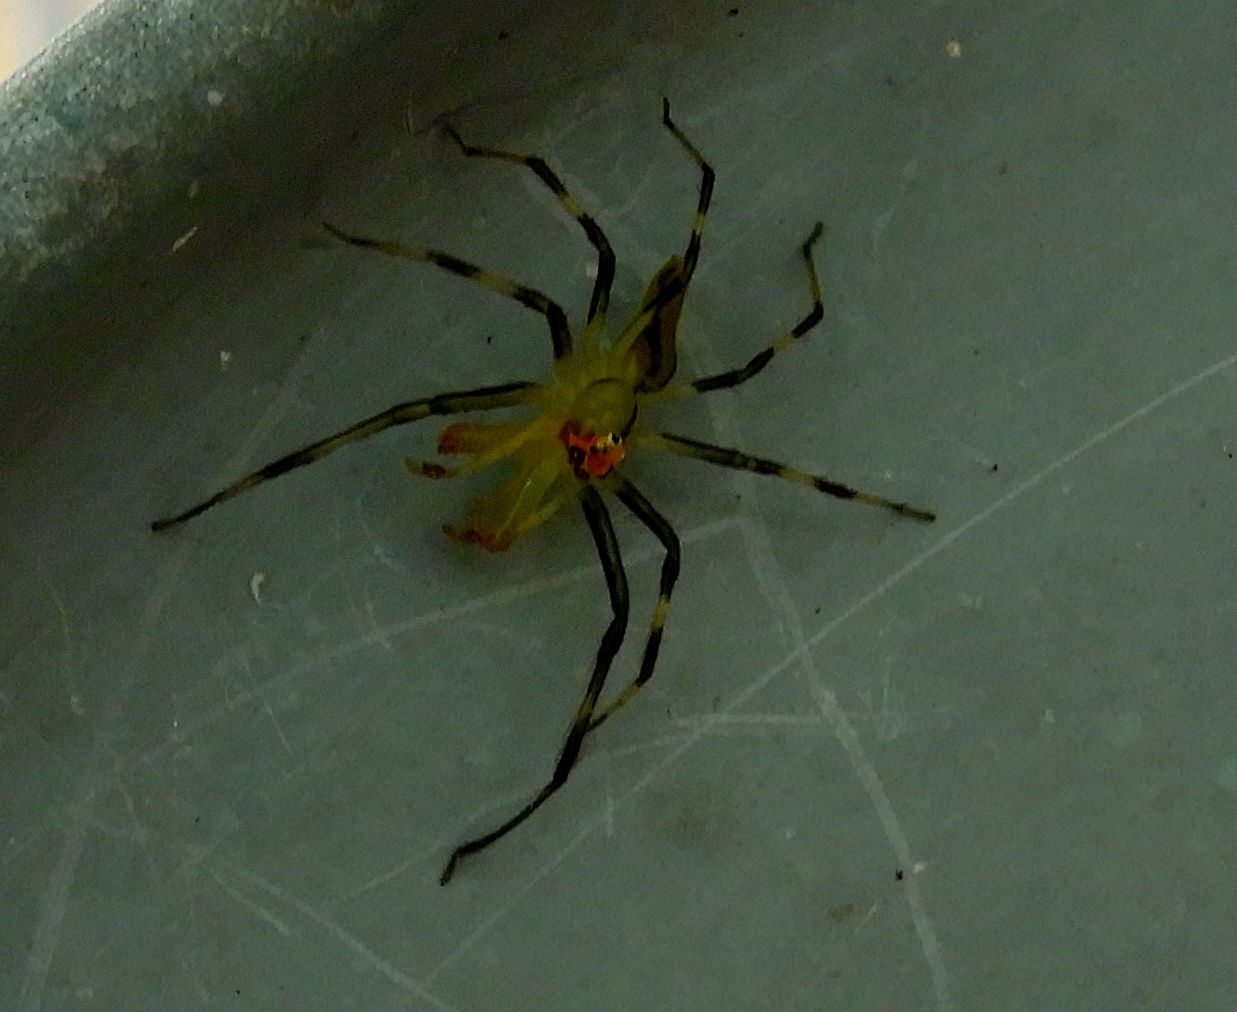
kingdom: Animalia
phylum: Arthropoda
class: Arachnida
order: Araneae
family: Salticidae
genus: Lyssomanes
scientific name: Lyssomanes
